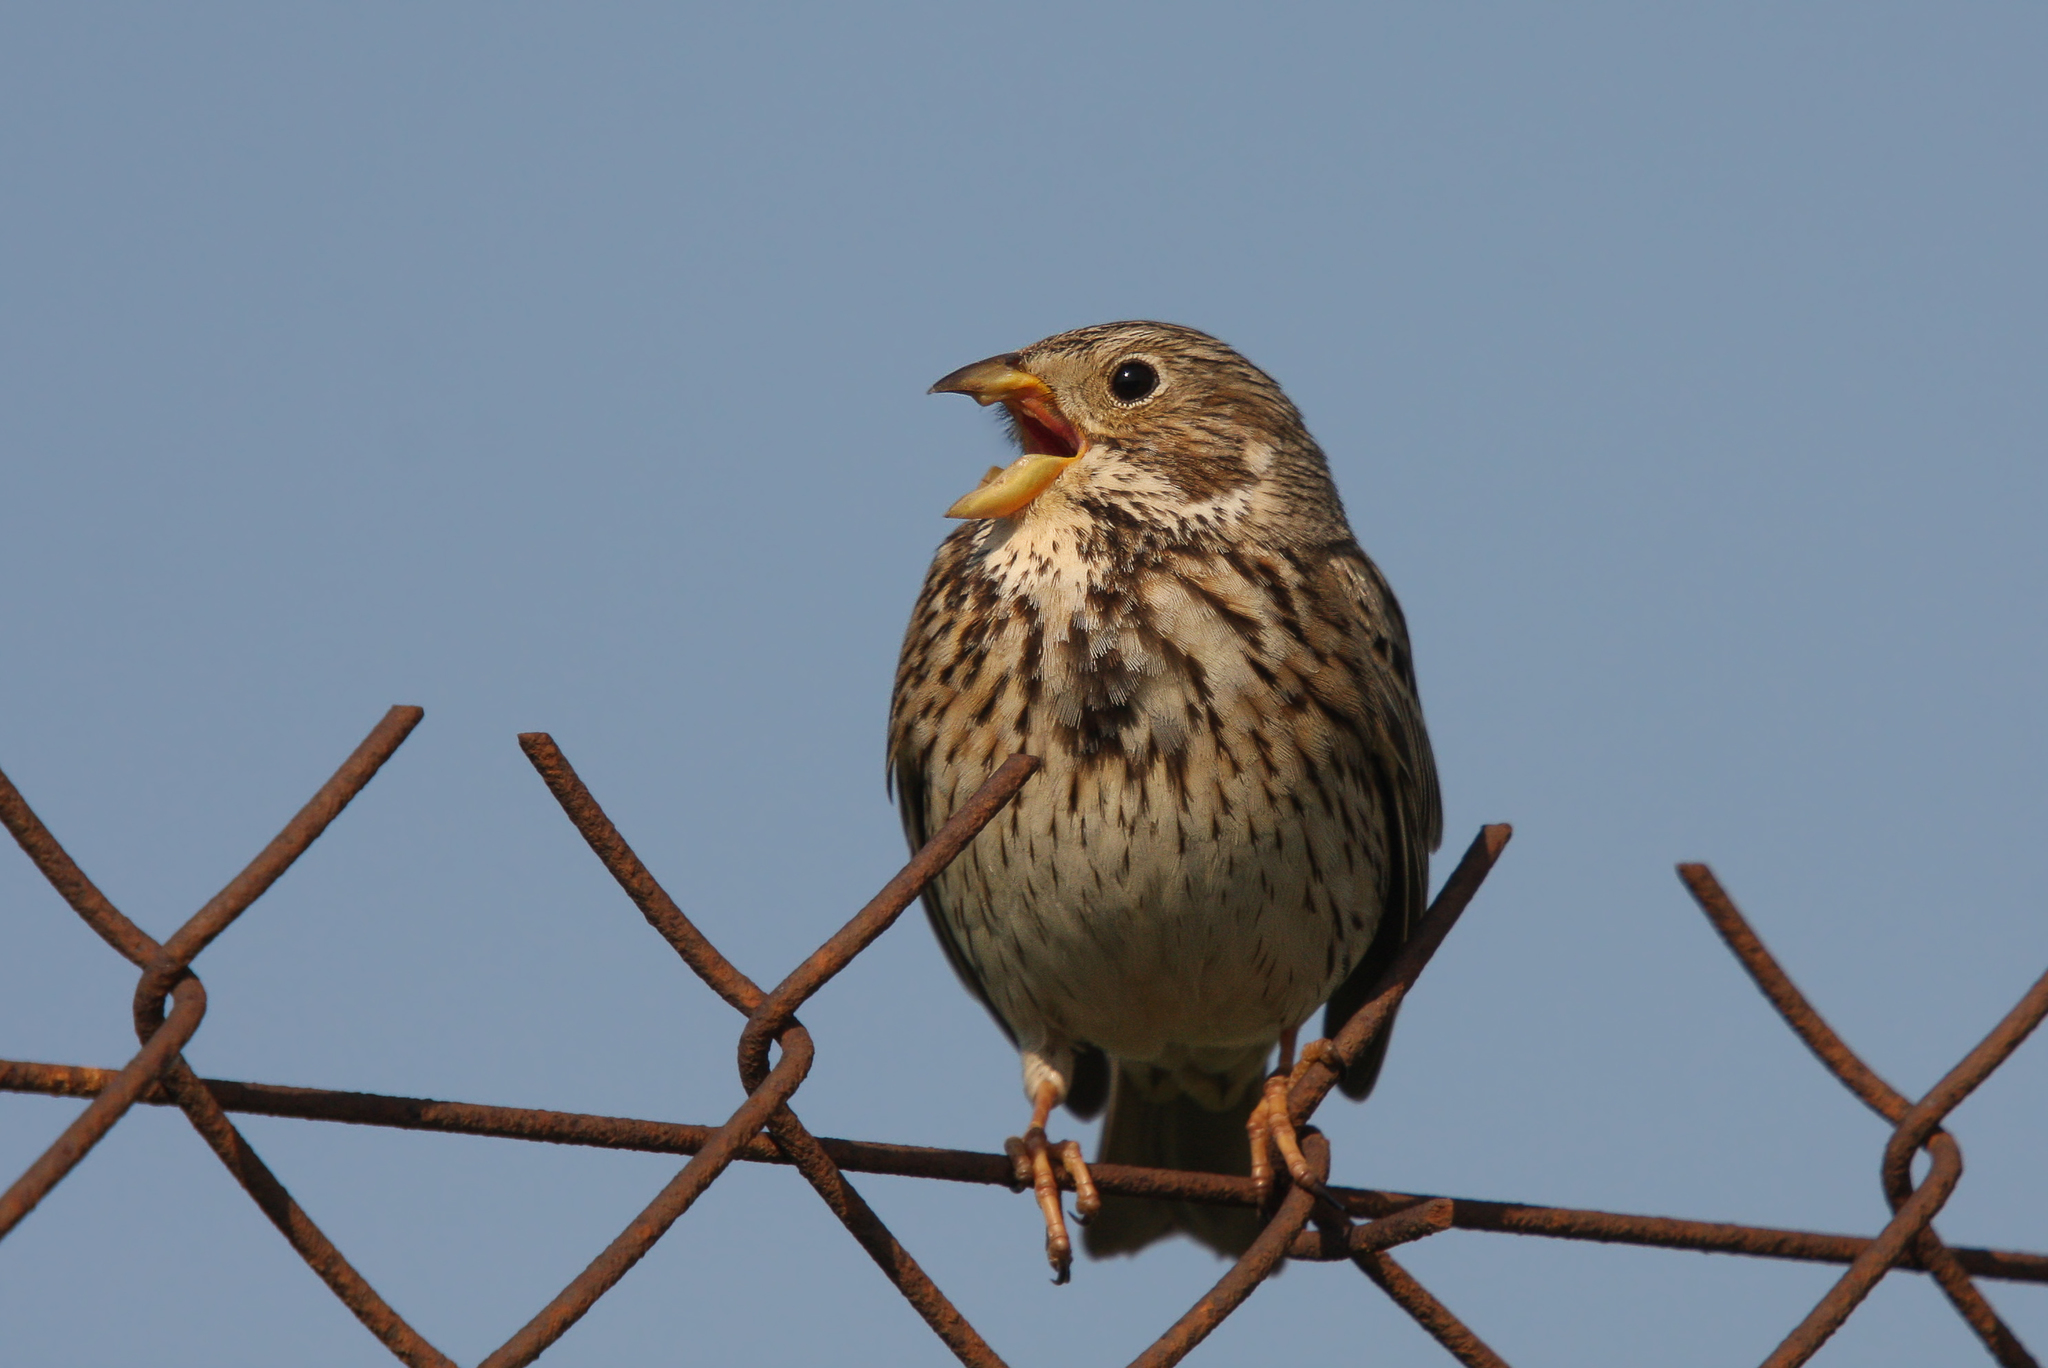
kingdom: Animalia
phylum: Chordata
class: Aves
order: Passeriformes
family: Emberizidae
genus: Emberiza
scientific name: Emberiza calandra
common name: Corn bunting
